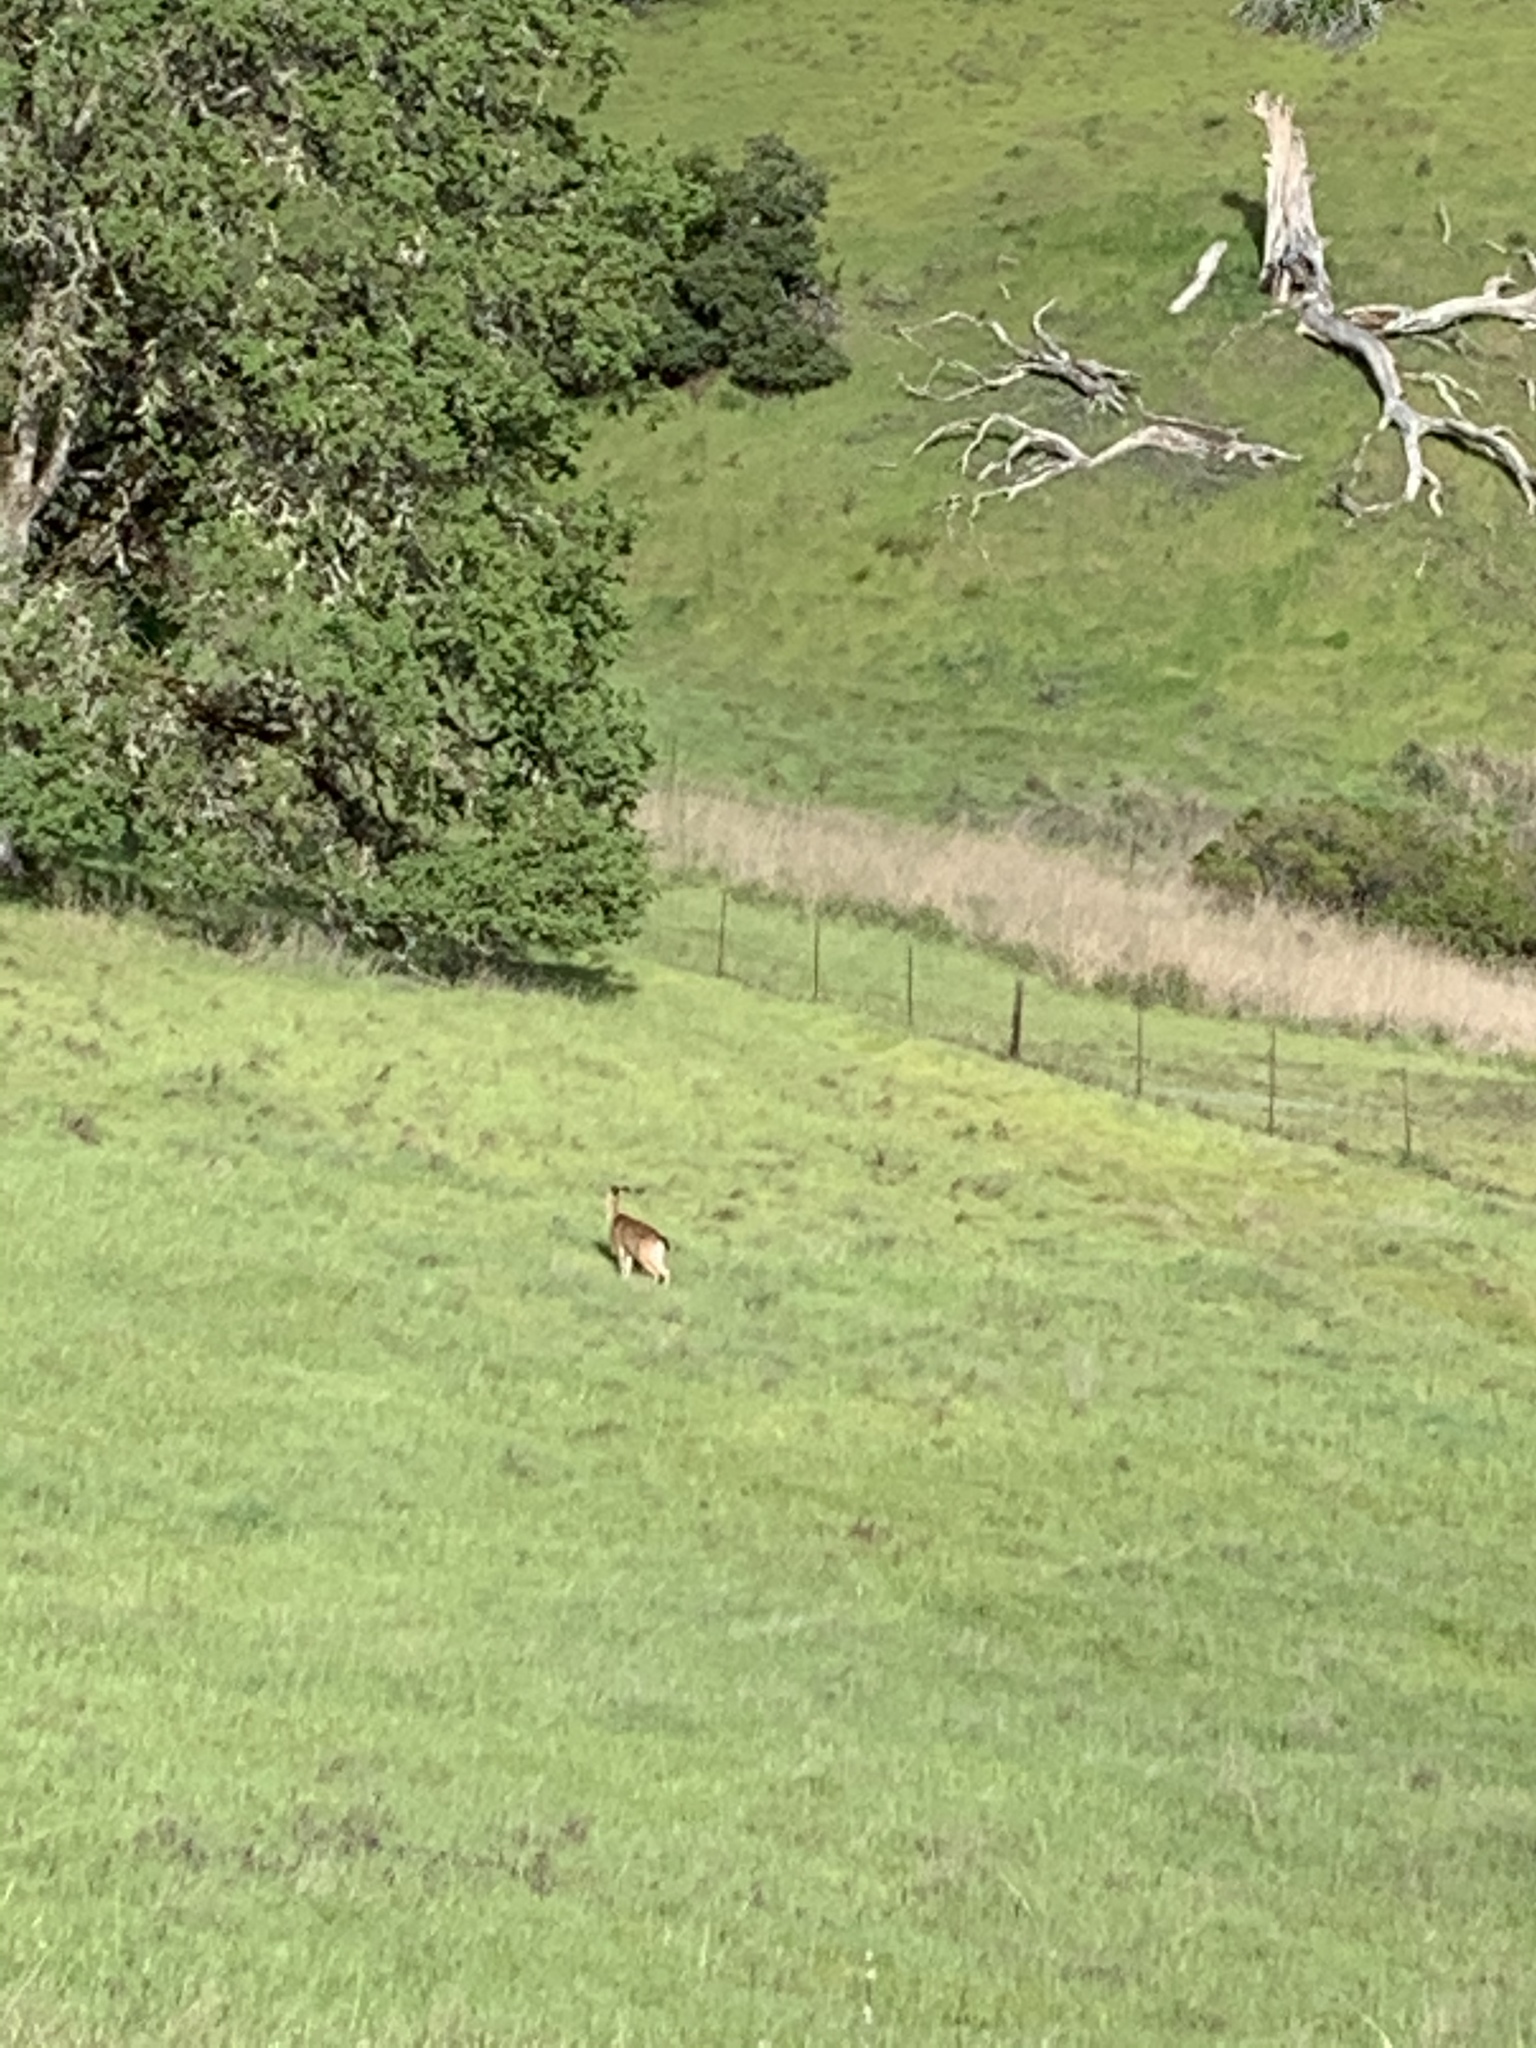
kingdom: Animalia
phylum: Chordata
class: Mammalia
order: Artiodactyla
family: Cervidae
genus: Odocoileus
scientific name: Odocoileus hemionus
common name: Mule deer
